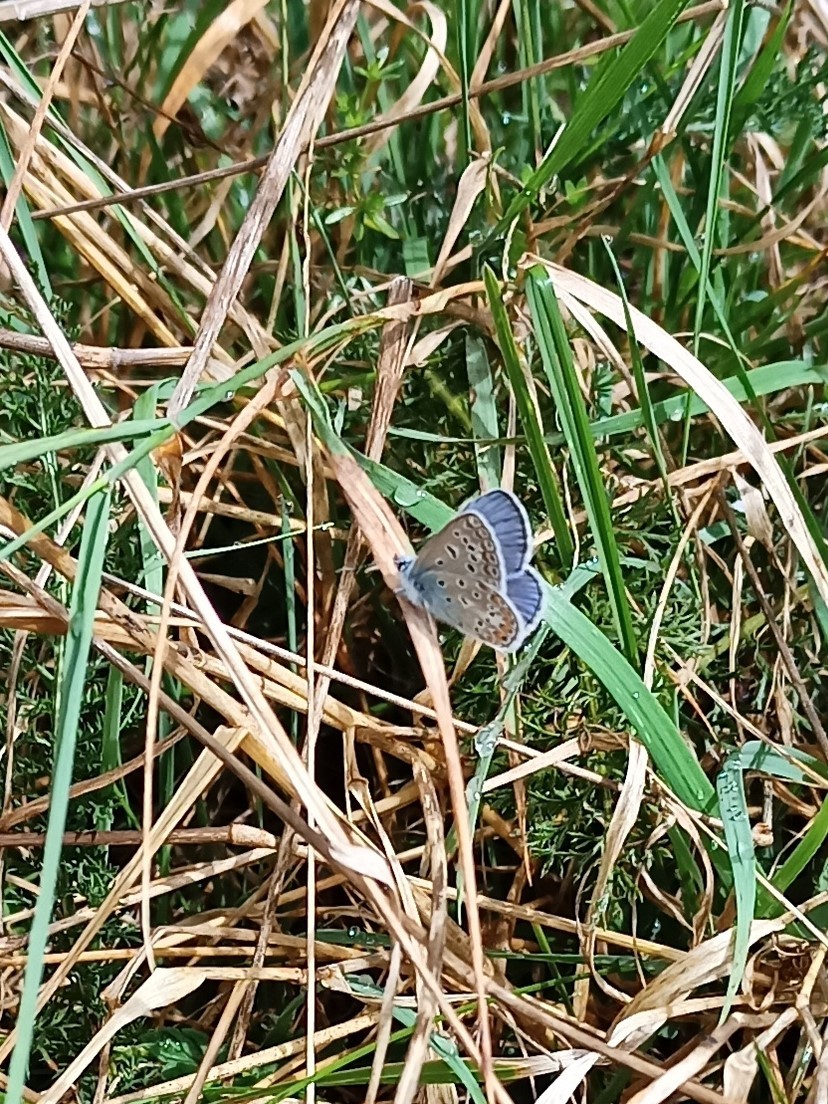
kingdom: Animalia
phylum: Arthropoda
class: Insecta
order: Lepidoptera
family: Lycaenidae
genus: Polyommatus
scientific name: Polyommatus icarus
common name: Common blue
